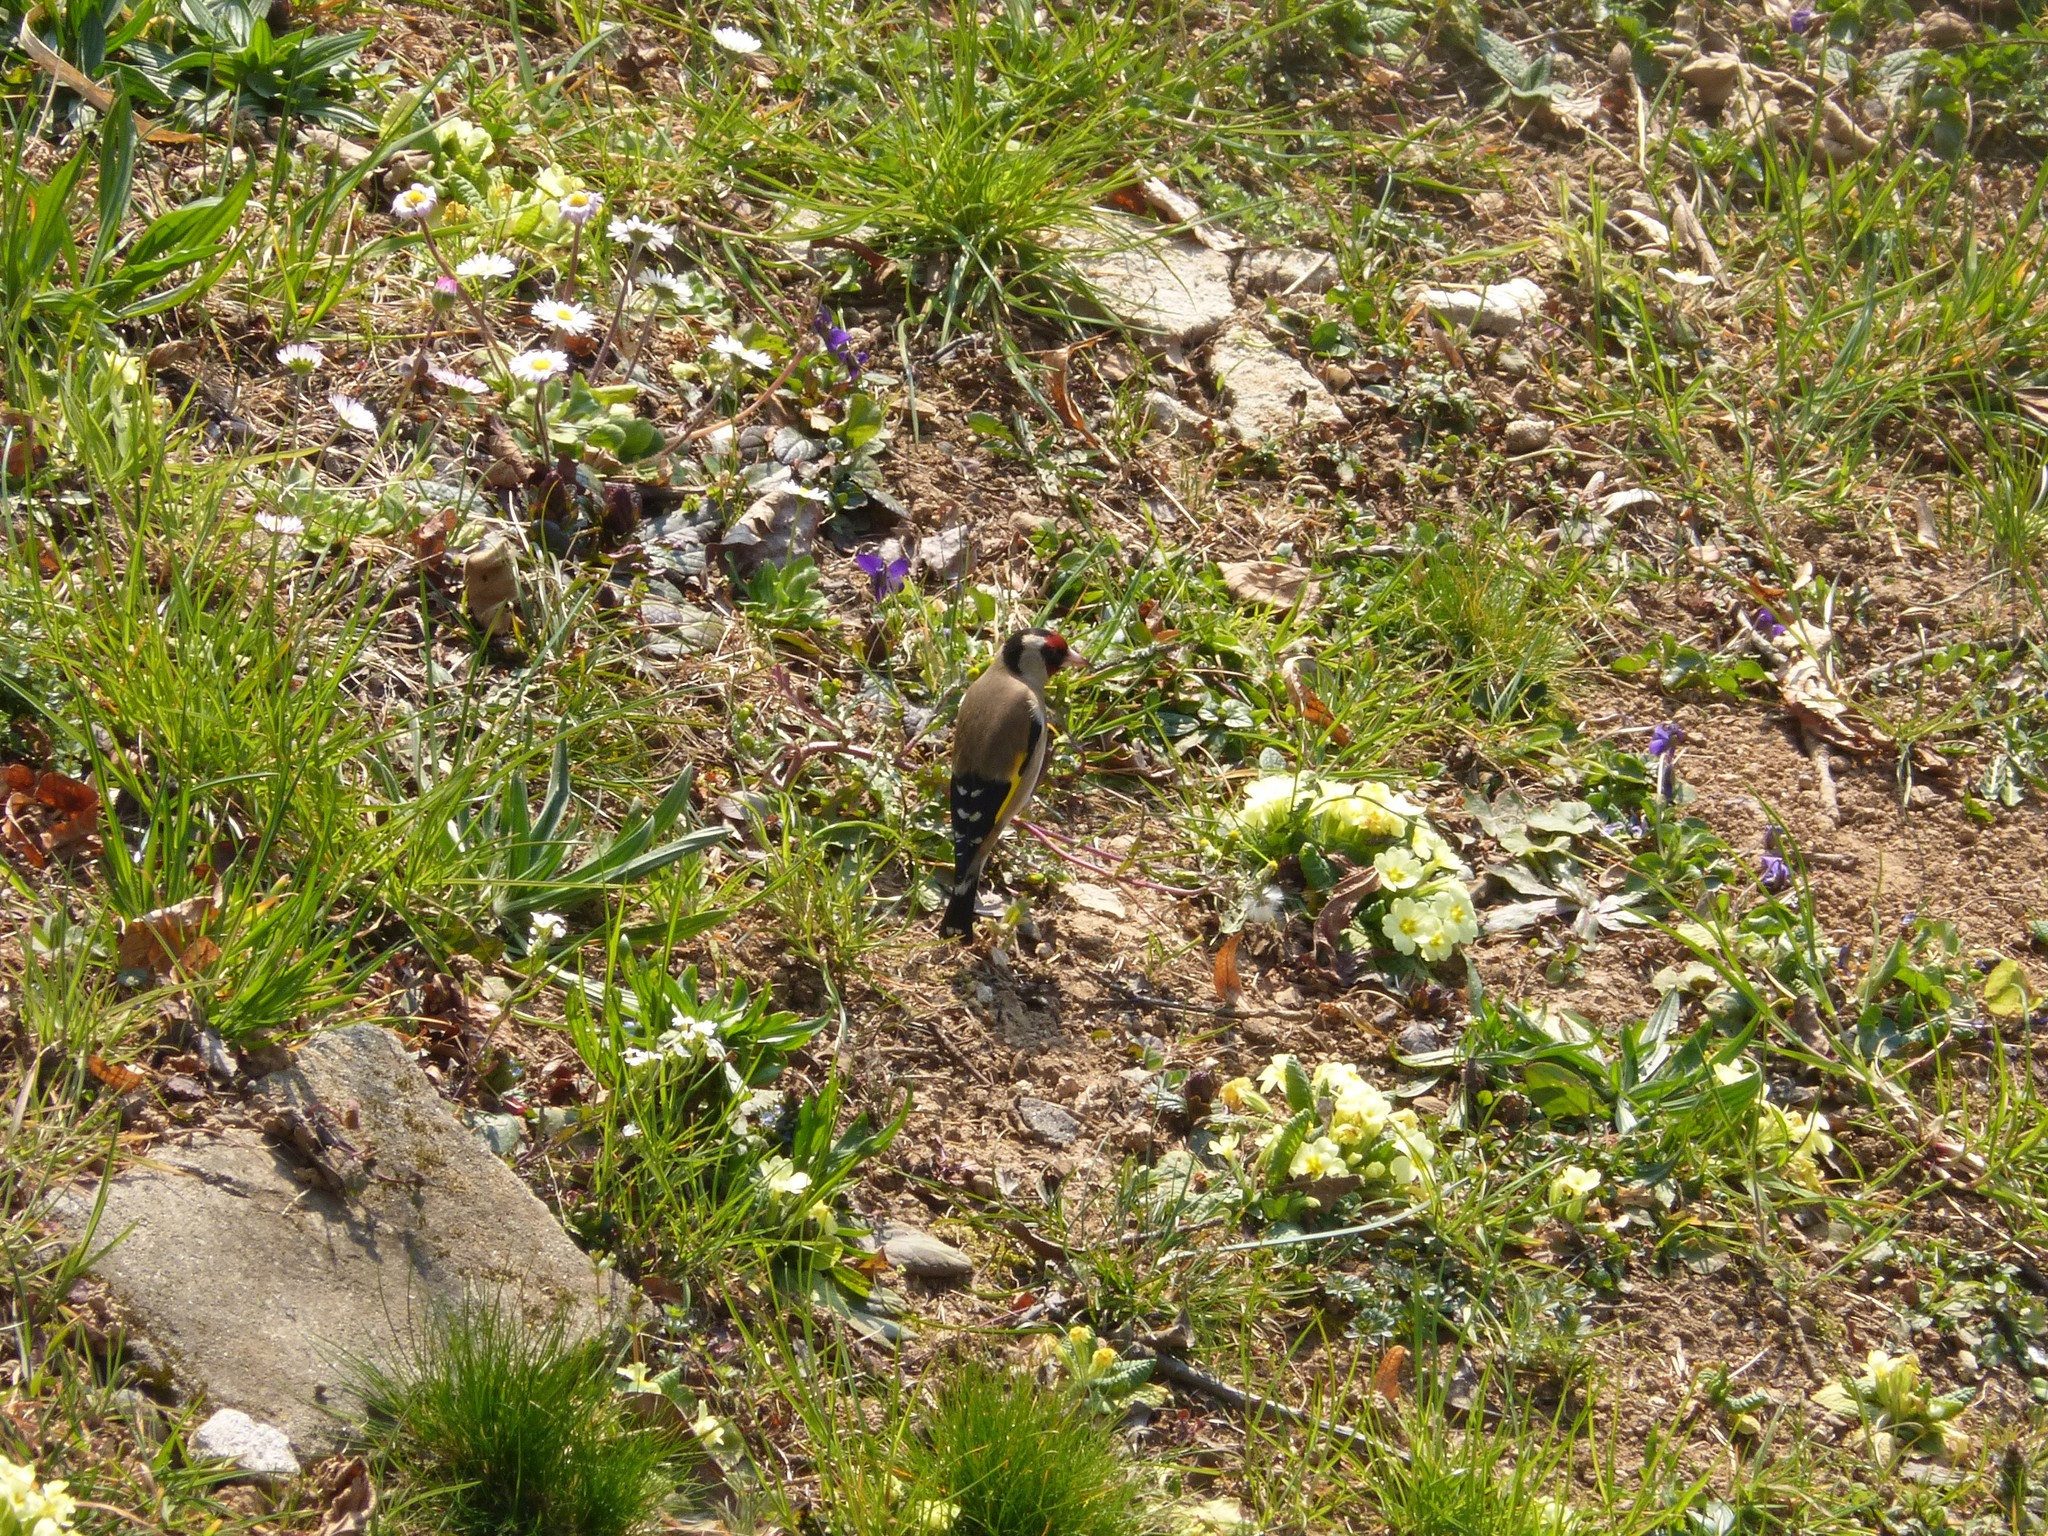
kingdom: Animalia
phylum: Chordata
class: Aves
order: Passeriformes
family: Fringillidae
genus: Carduelis
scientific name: Carduelis carduelis
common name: European goldfinch
